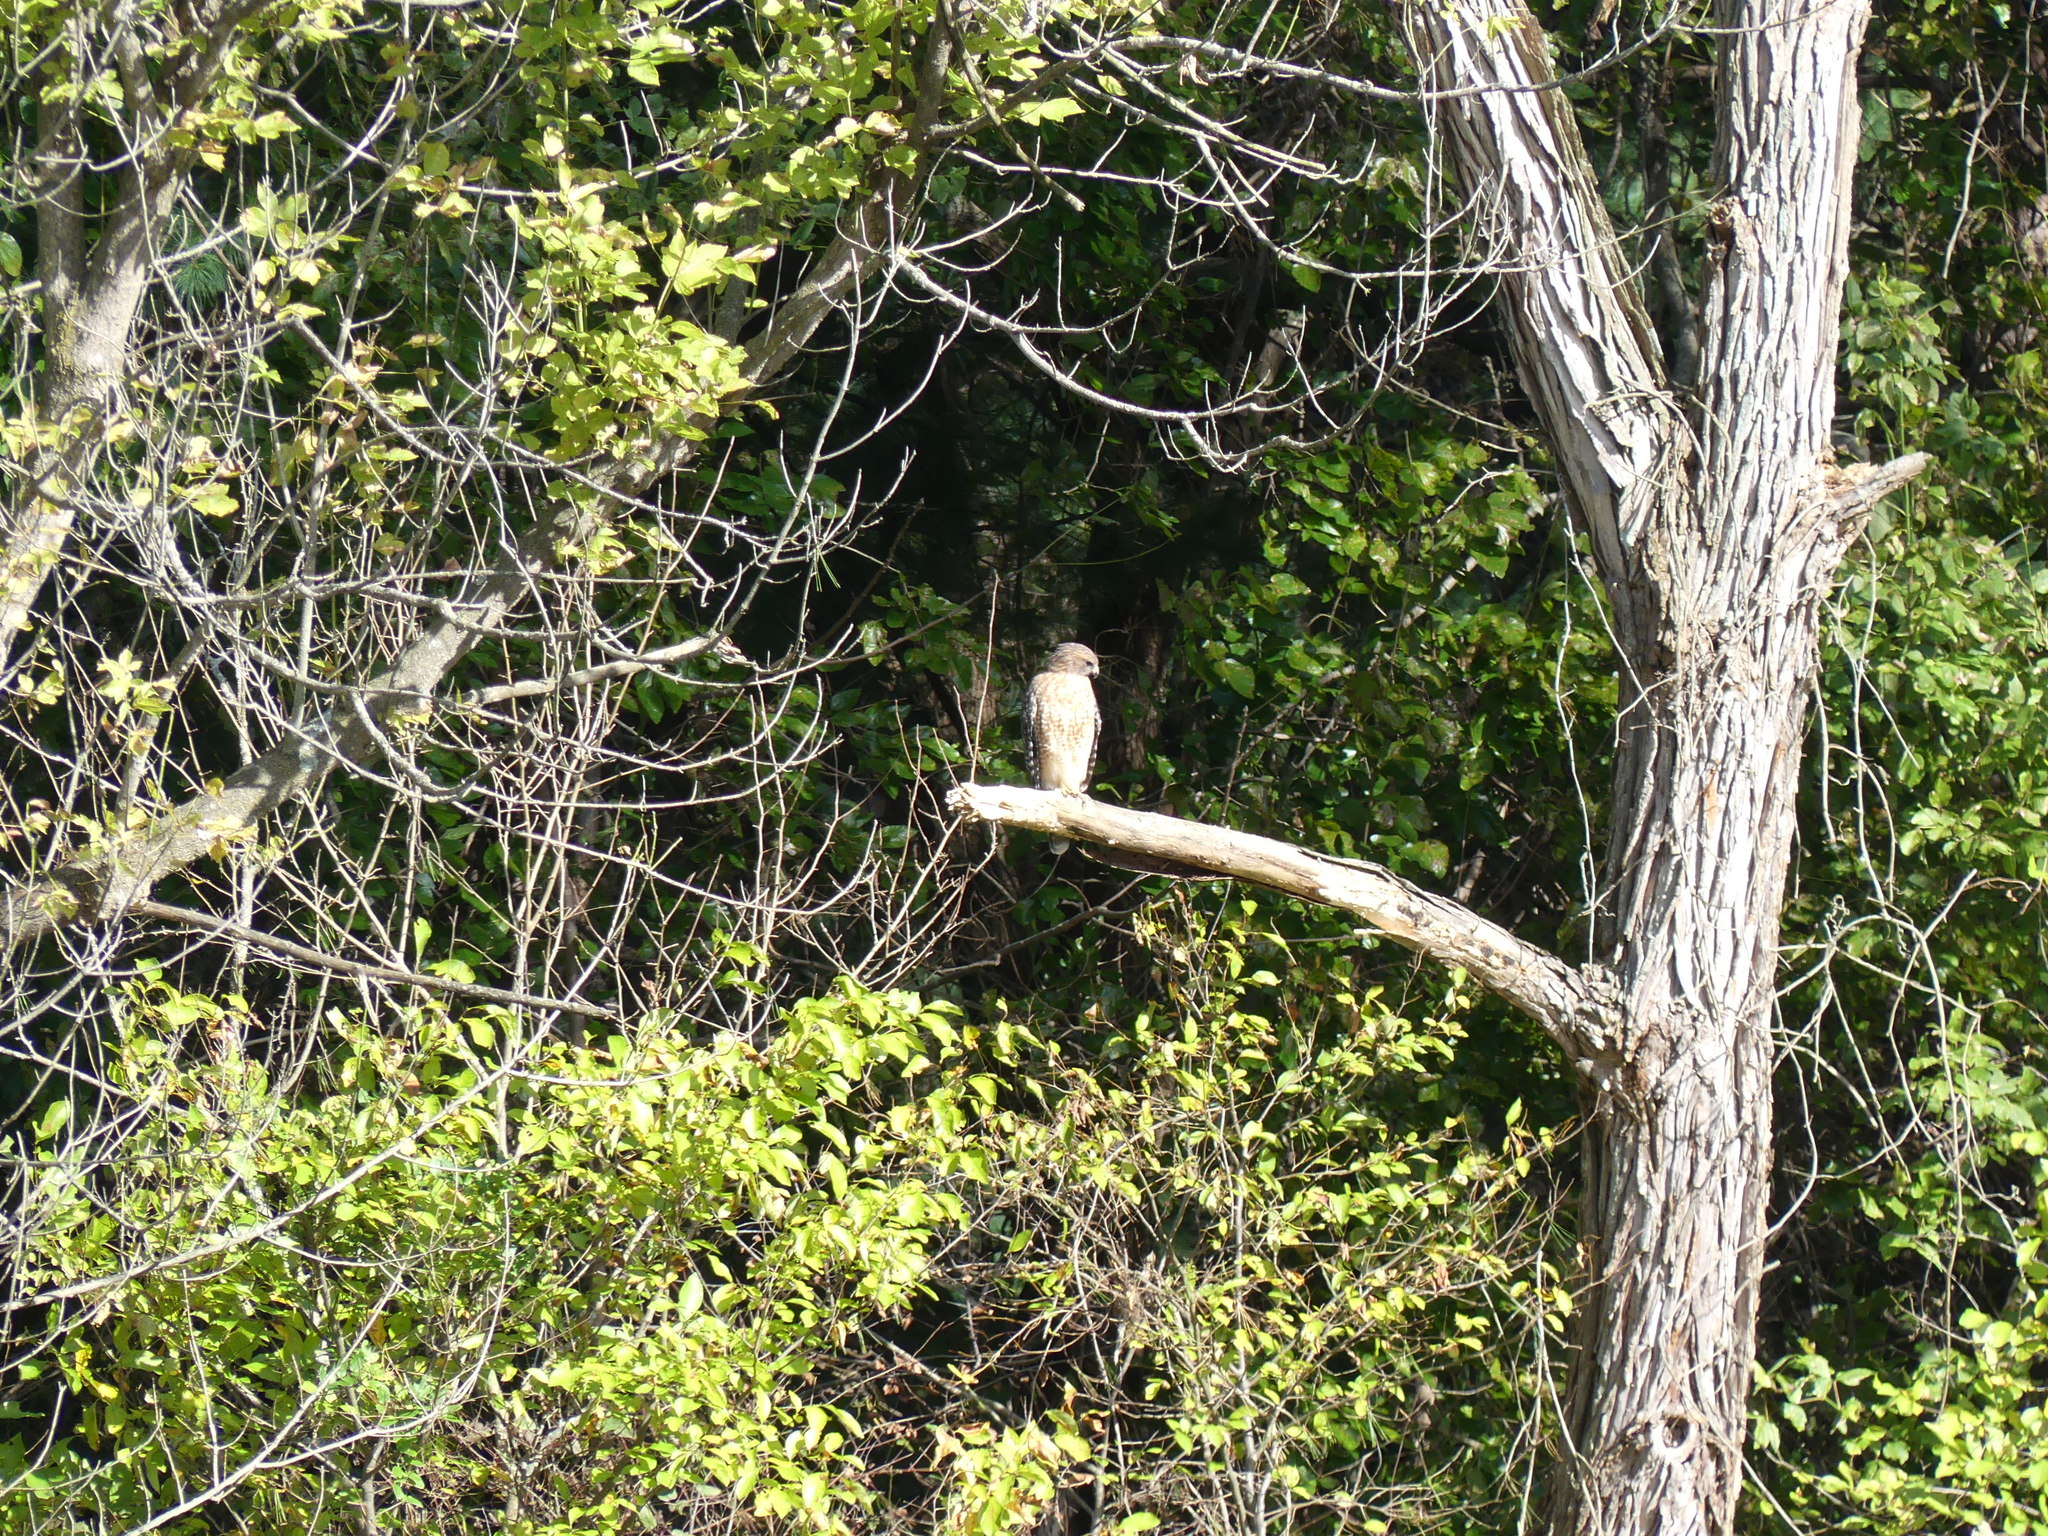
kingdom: Animalia
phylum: Chordata
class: Aves
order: Accipitriformes
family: Accipitridae
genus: Buteo
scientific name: Buteo lineatus
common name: Red-shouldered hawk
